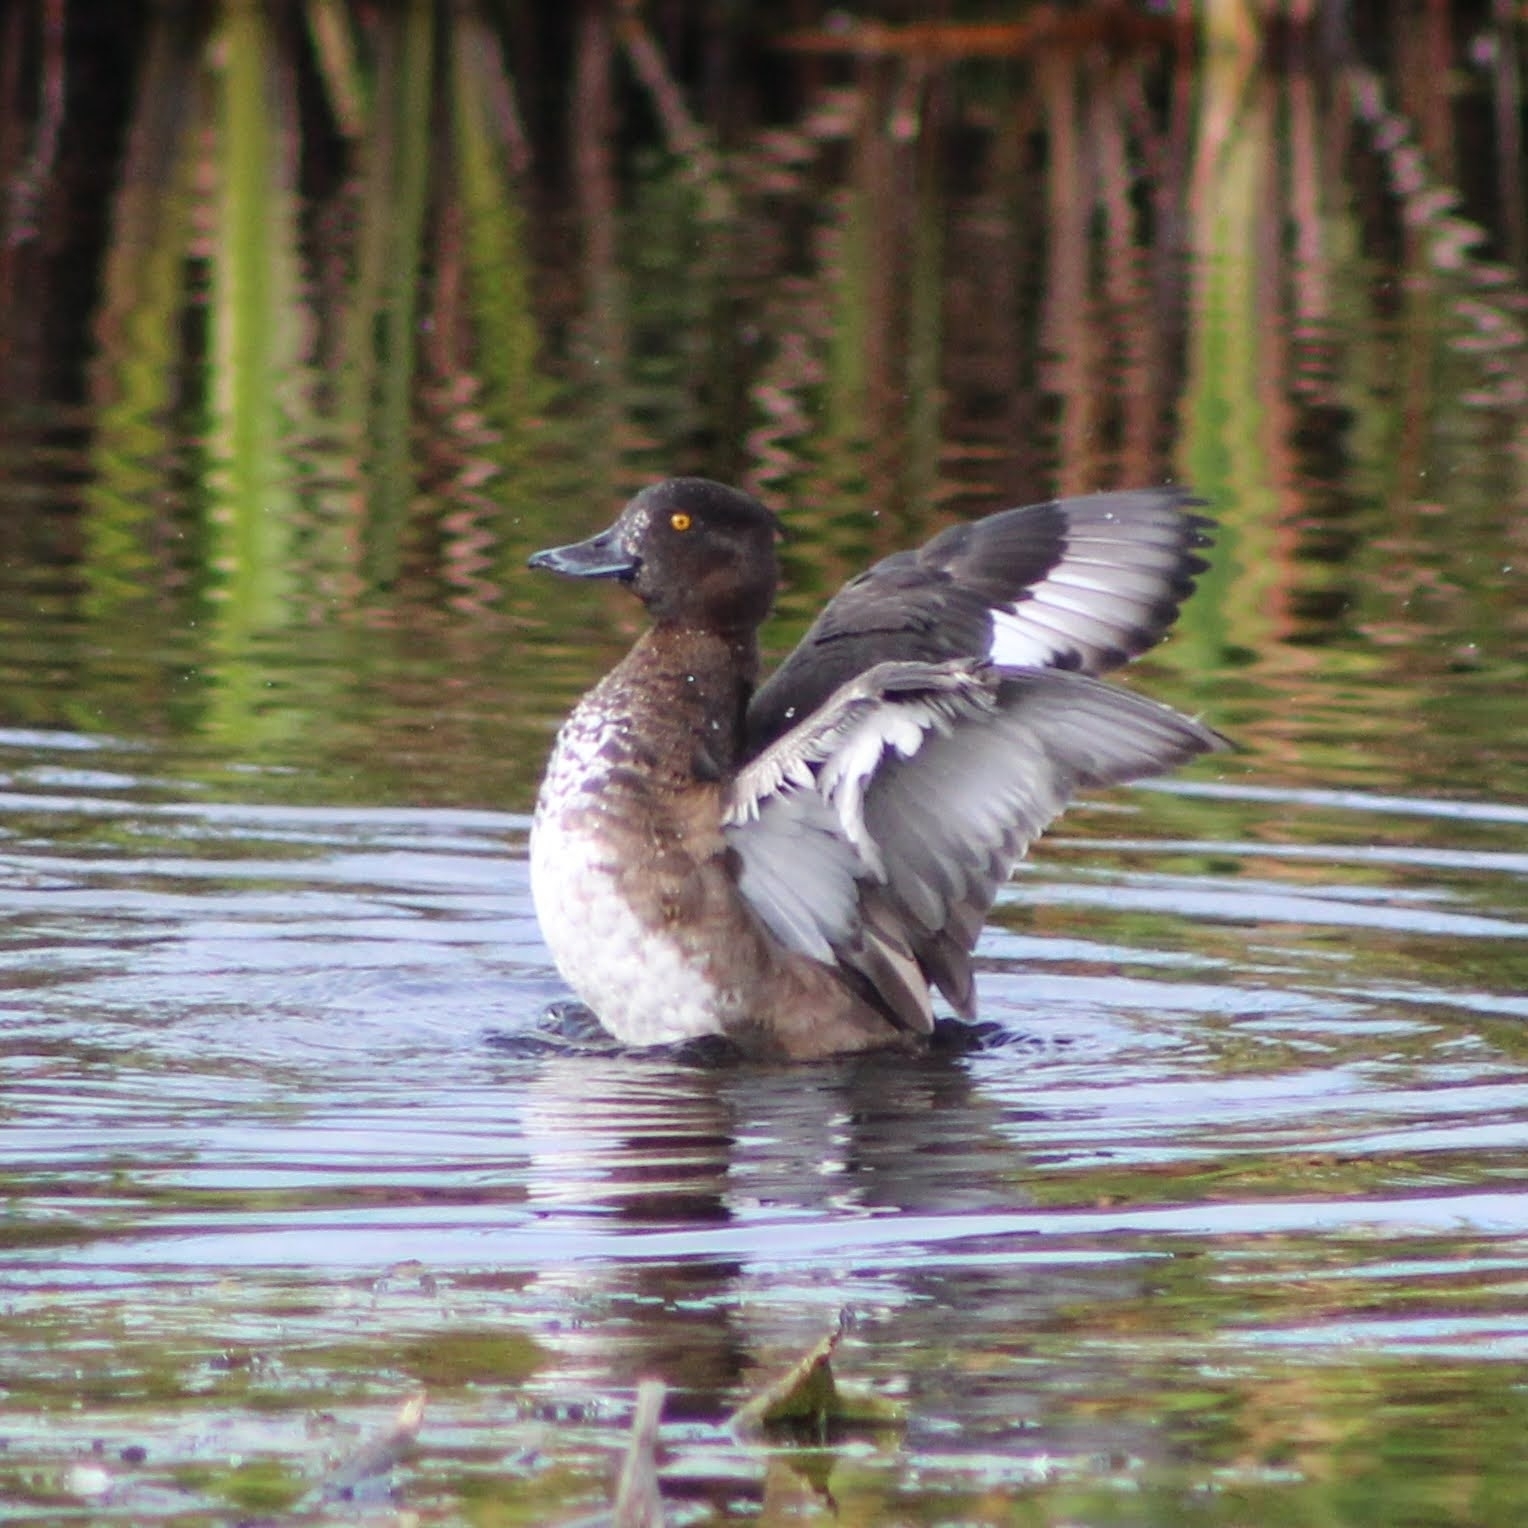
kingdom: Animalia
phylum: Chordata
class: Aves
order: Anseriformes
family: Anatidae
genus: Aythya
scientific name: Aythya fuligula
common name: Tufted duck
